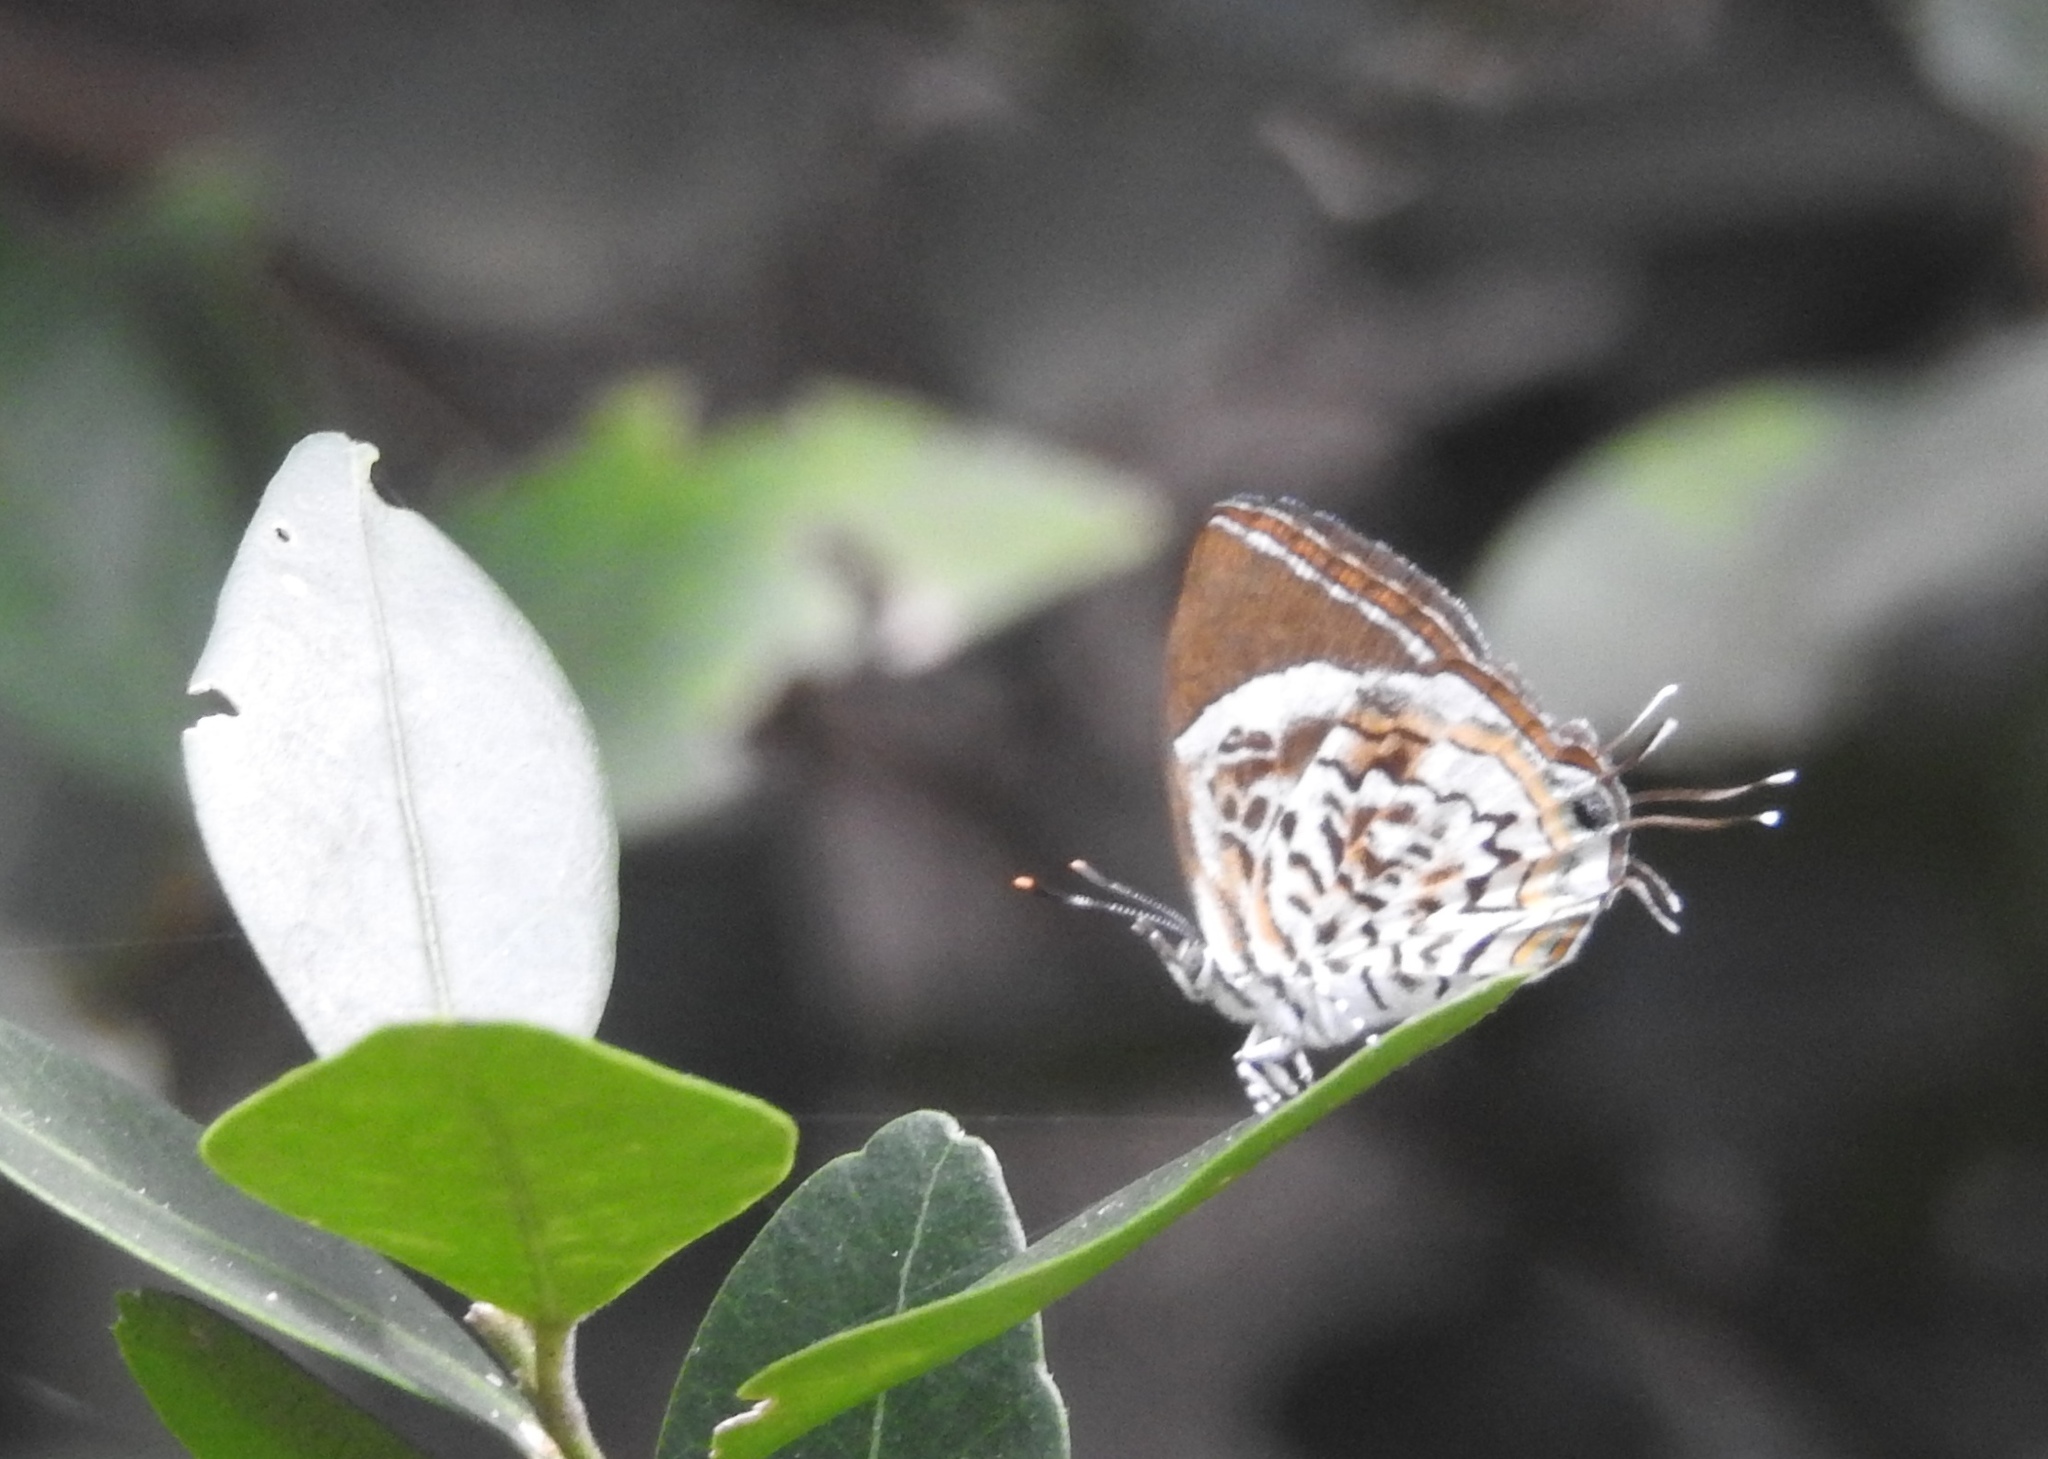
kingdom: Animalia
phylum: Arthropoda
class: Insecta
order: Lepidoptera
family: Lycaenidae
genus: Rathinda
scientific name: Rathinda amor
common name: Monkey puzzle
